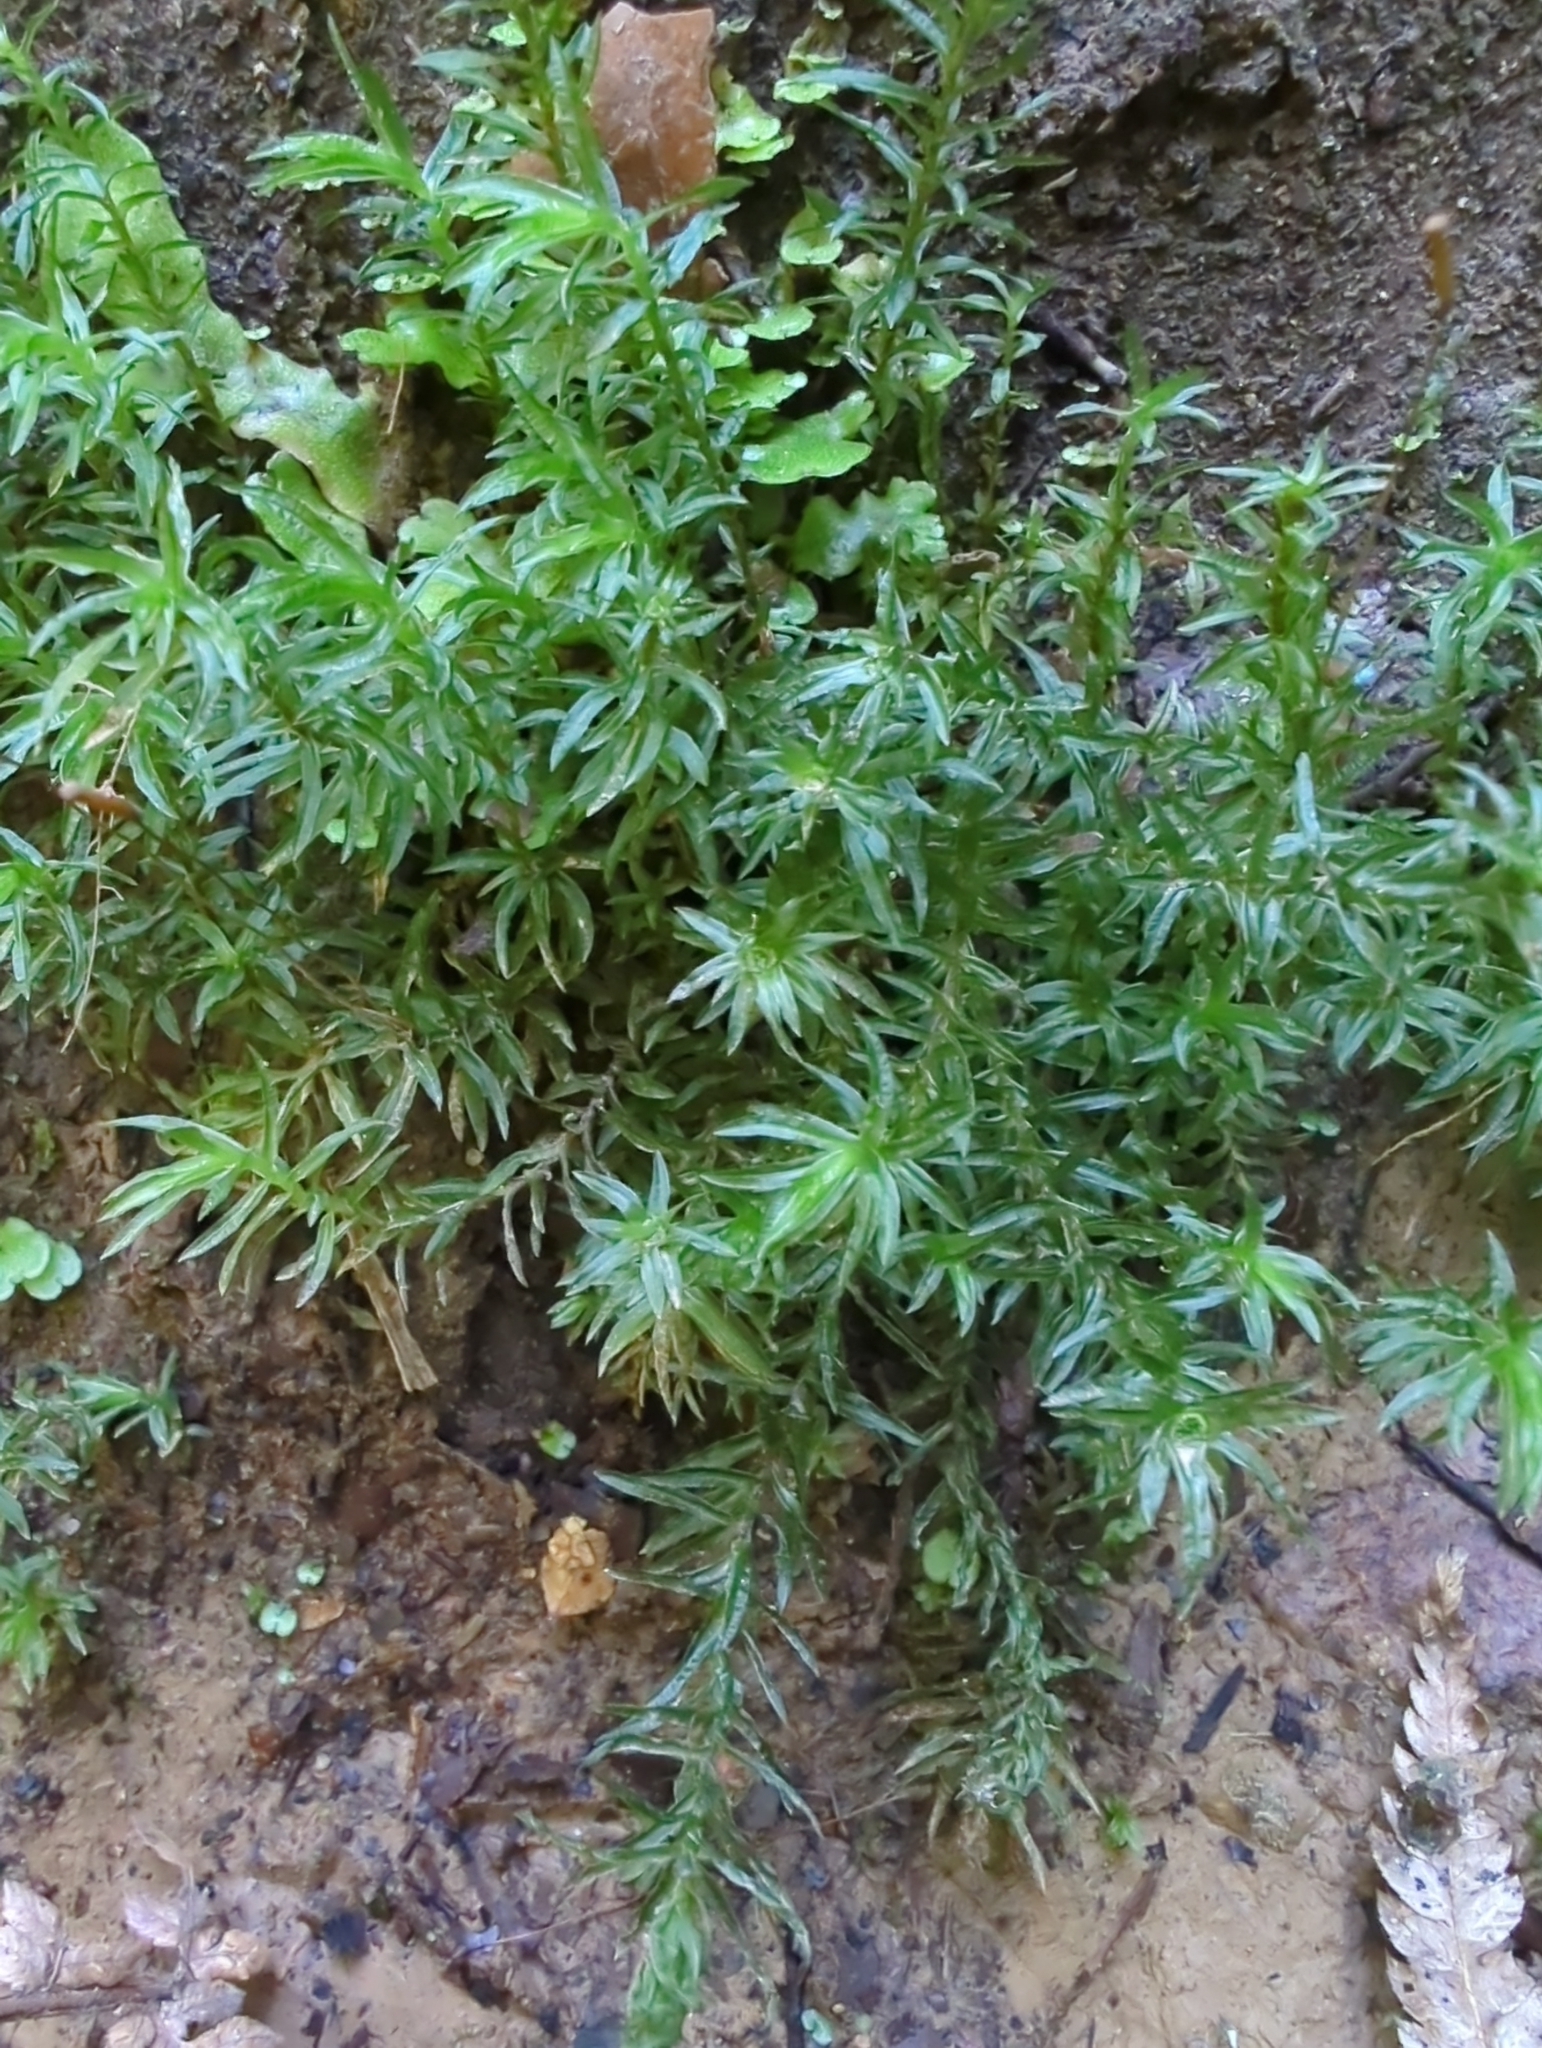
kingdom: Plantae
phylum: Bryophyta
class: Polytrichopsida
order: Polytrichales
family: Polytrichaceae
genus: Atrichum
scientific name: Atrichum androgynum
